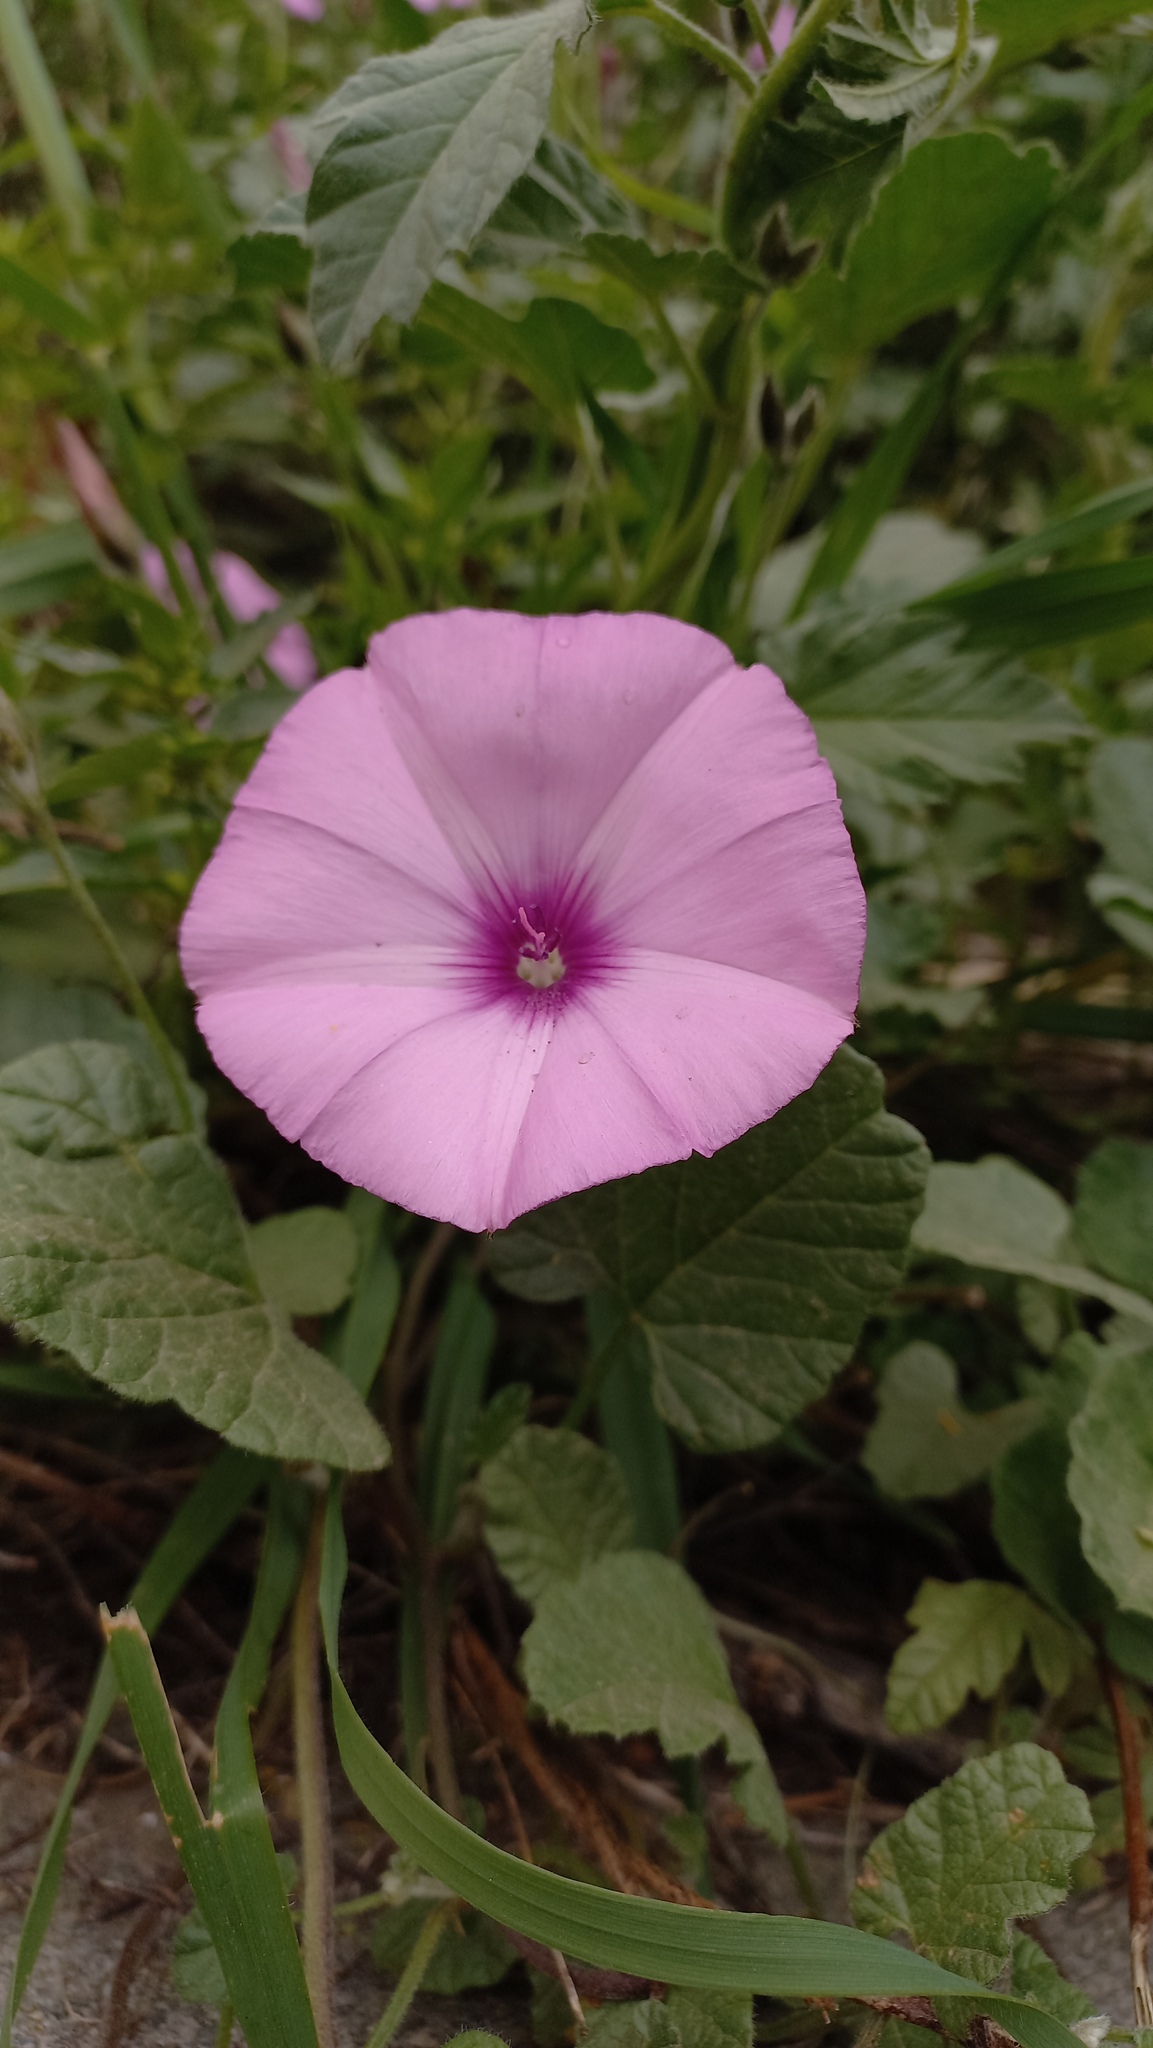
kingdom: Plantae
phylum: Tracheophyta
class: Magnoliopsida
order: Solanales
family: Convolvulaceae
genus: Convolvulus
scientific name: Convolvulus althaeoides
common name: Mallow bindweed
